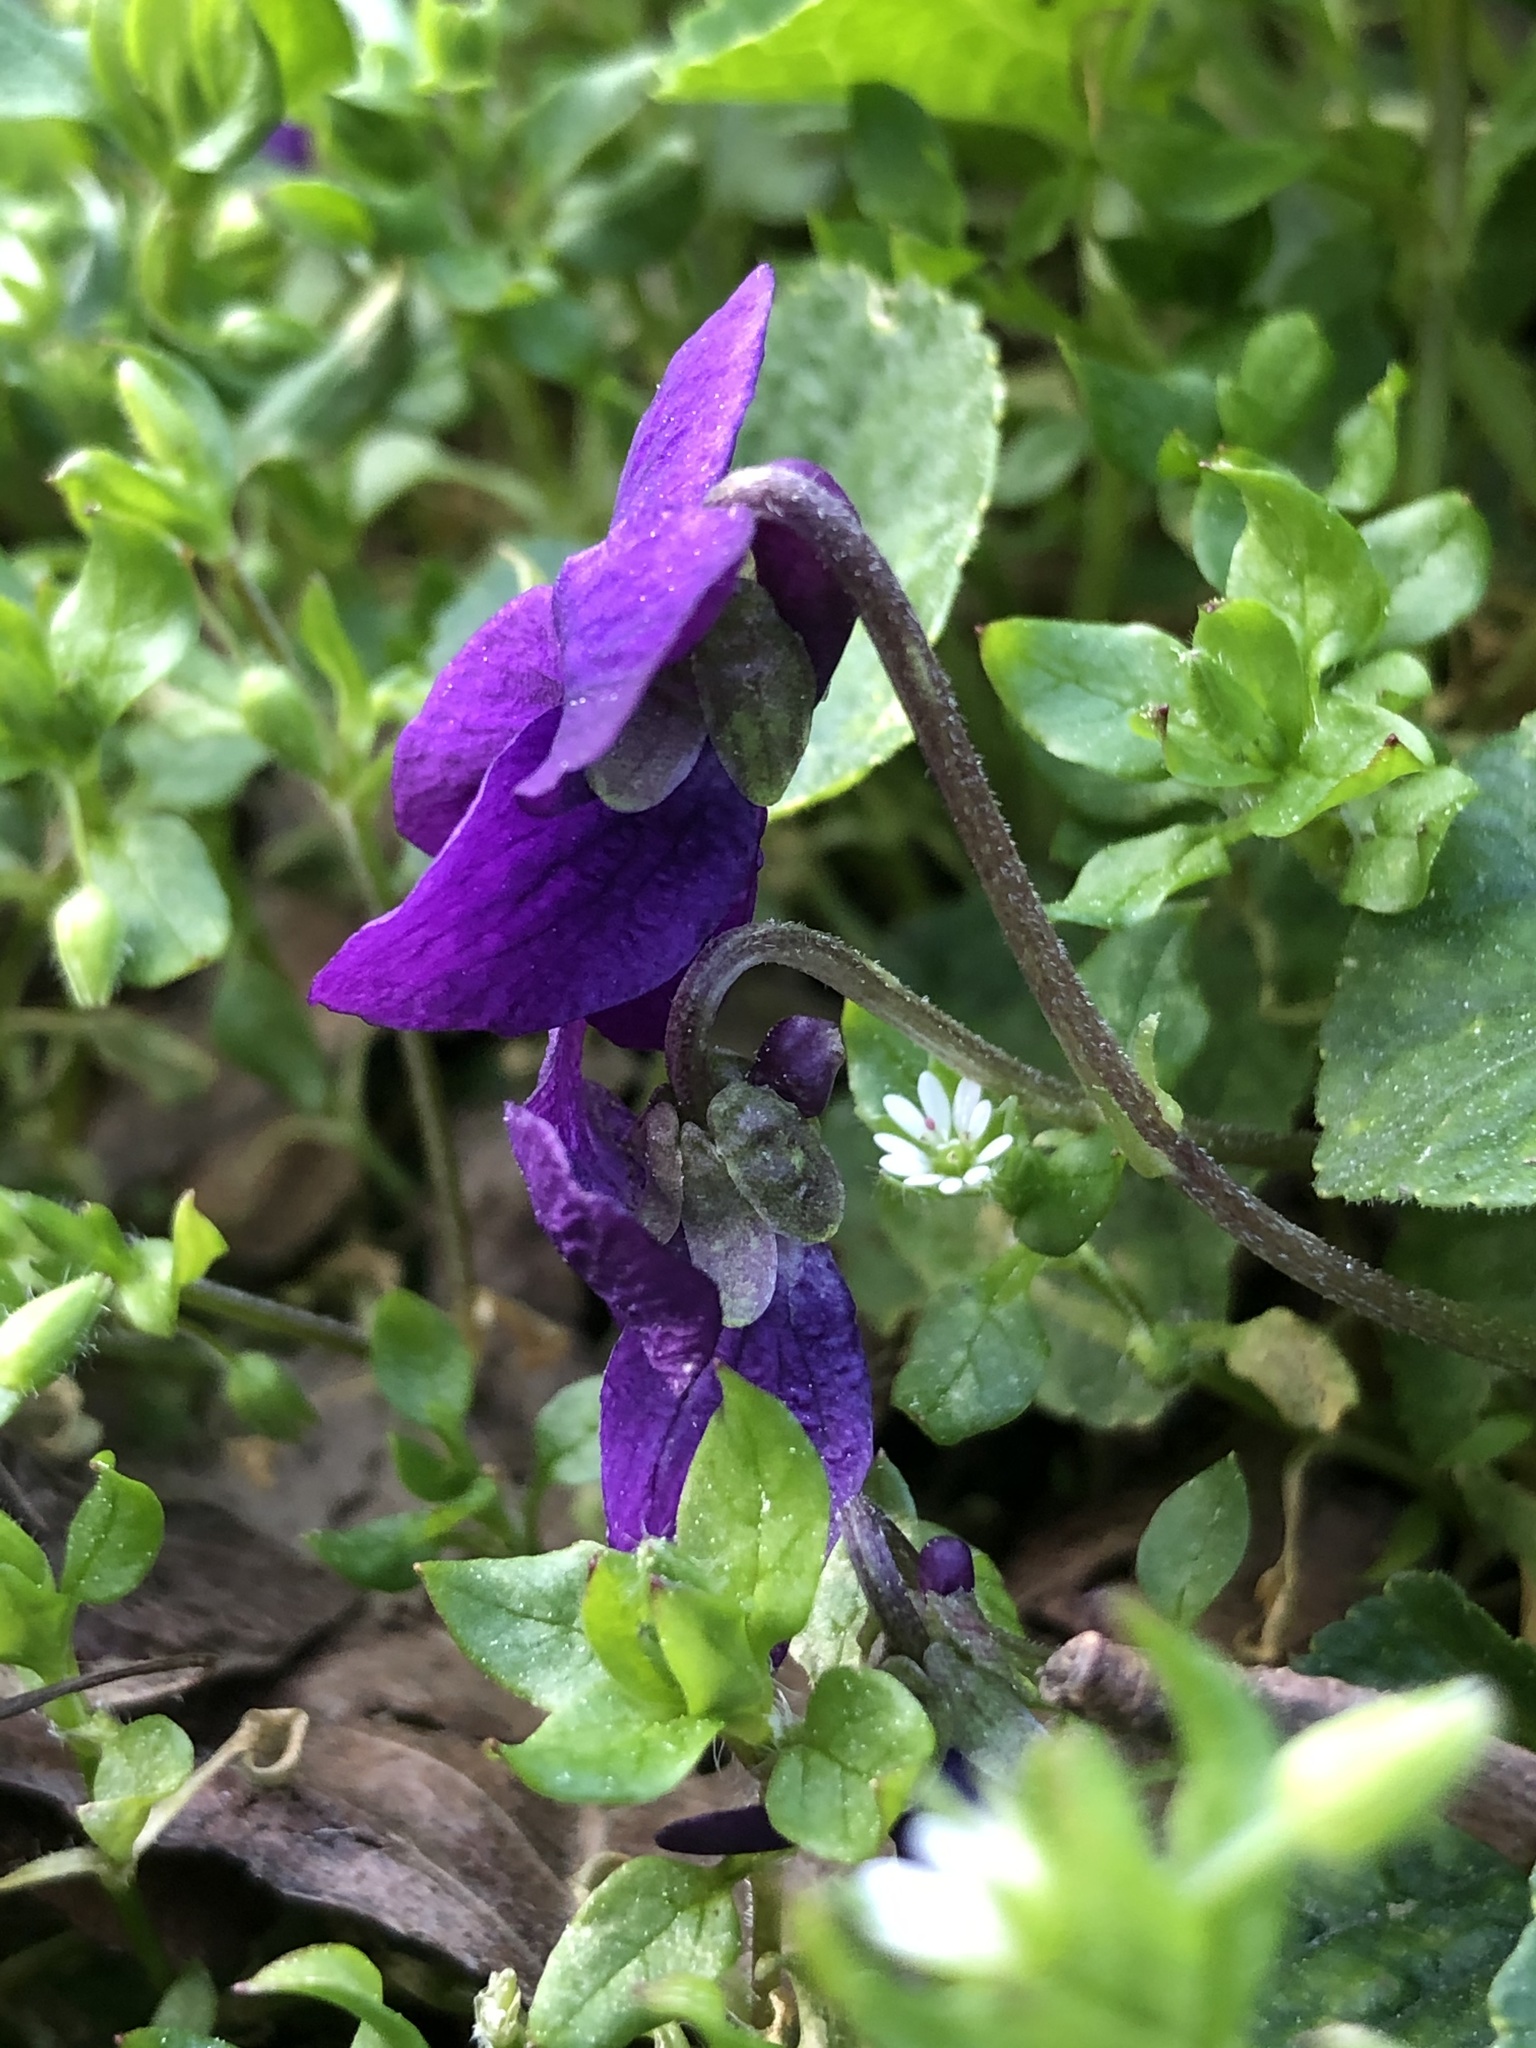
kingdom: Plantae
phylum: Tracheophyta
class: Magnoliopsida
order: Malpighiales
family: Violaceae
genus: Viola
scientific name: Viola odorata
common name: Sweet violet
